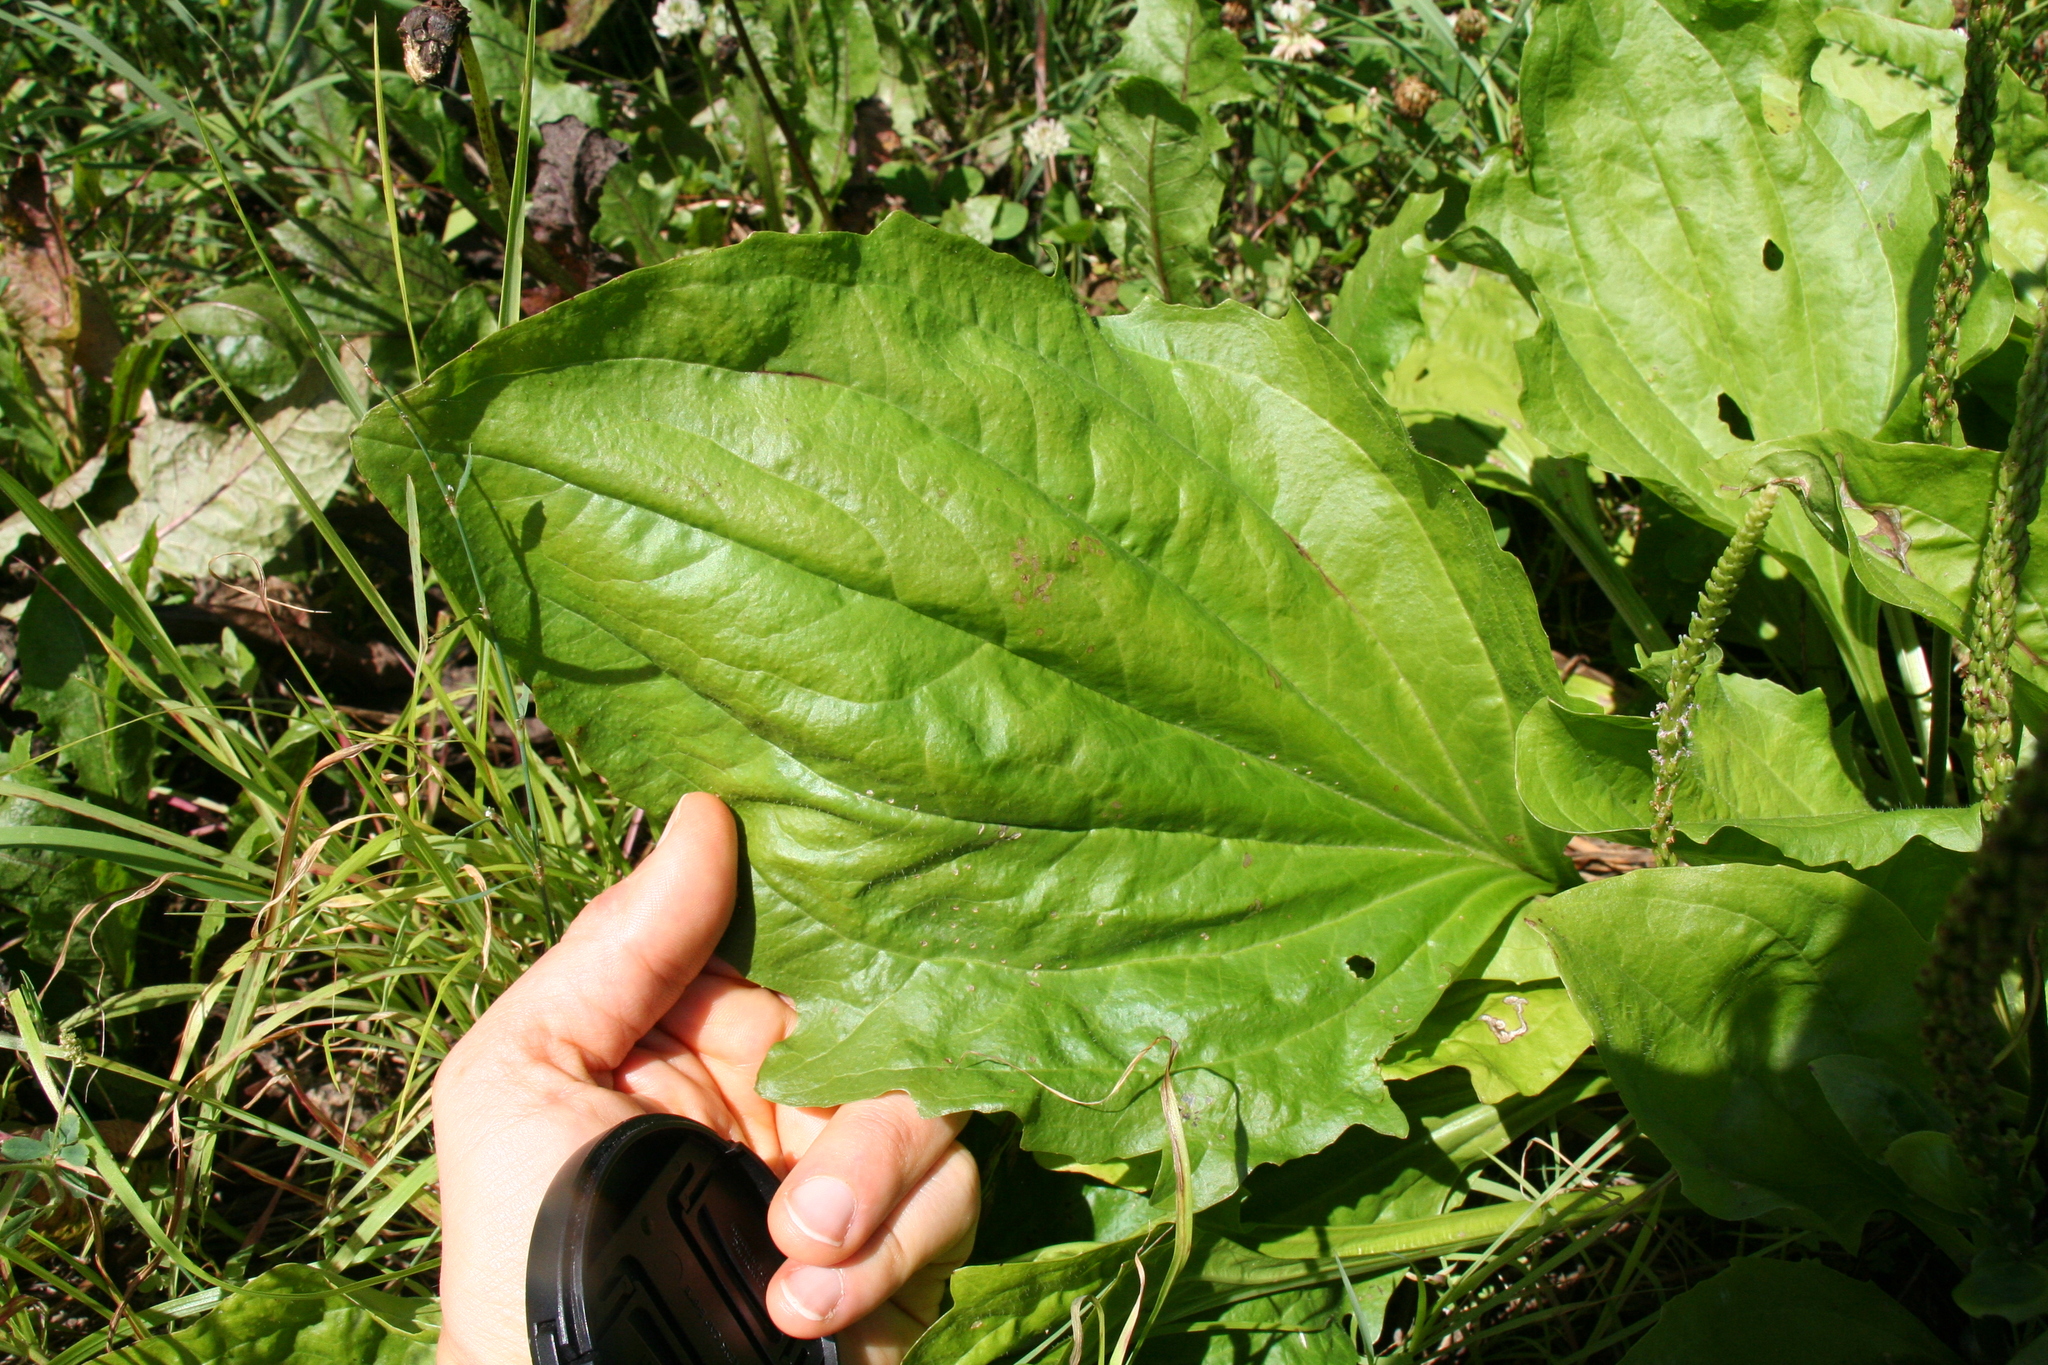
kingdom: Plantae
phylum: Tracheophyta
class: Magnoliopsida
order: Lamiales
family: Plantaginaceae
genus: Plantago
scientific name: Plantago major
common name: Common plantain
